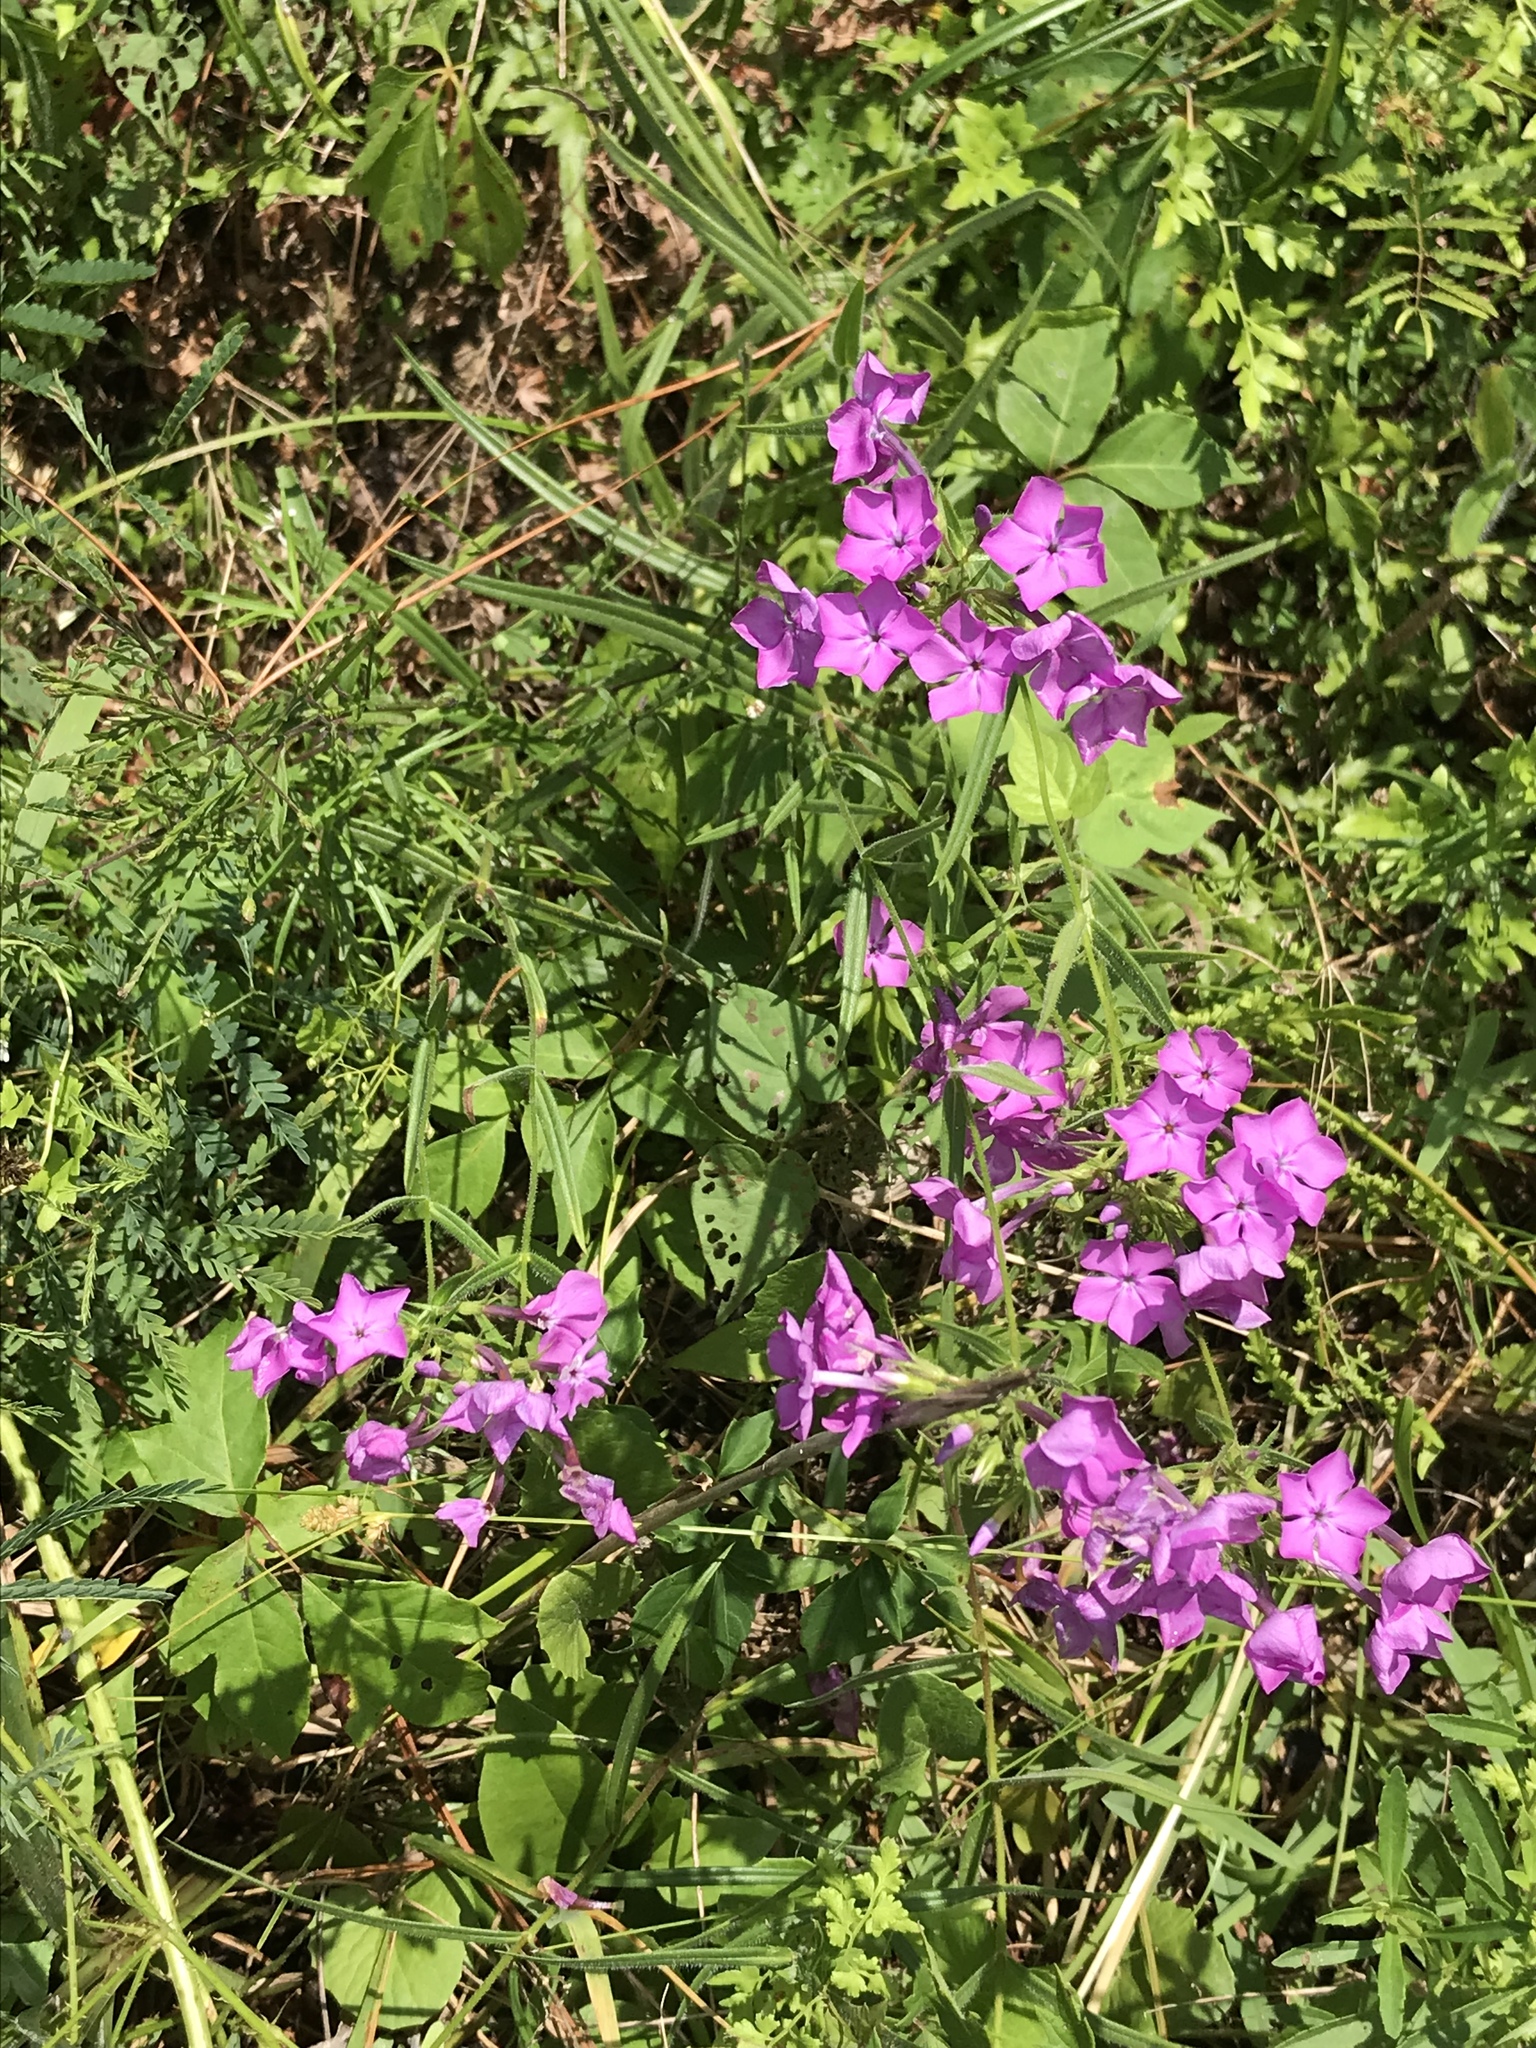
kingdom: Plantae
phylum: Tracheophyta
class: Magnoliopsida
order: Ericales
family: Polemoniaceae
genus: Phlox
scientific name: Phlox pilosa
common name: Prairie phlox
